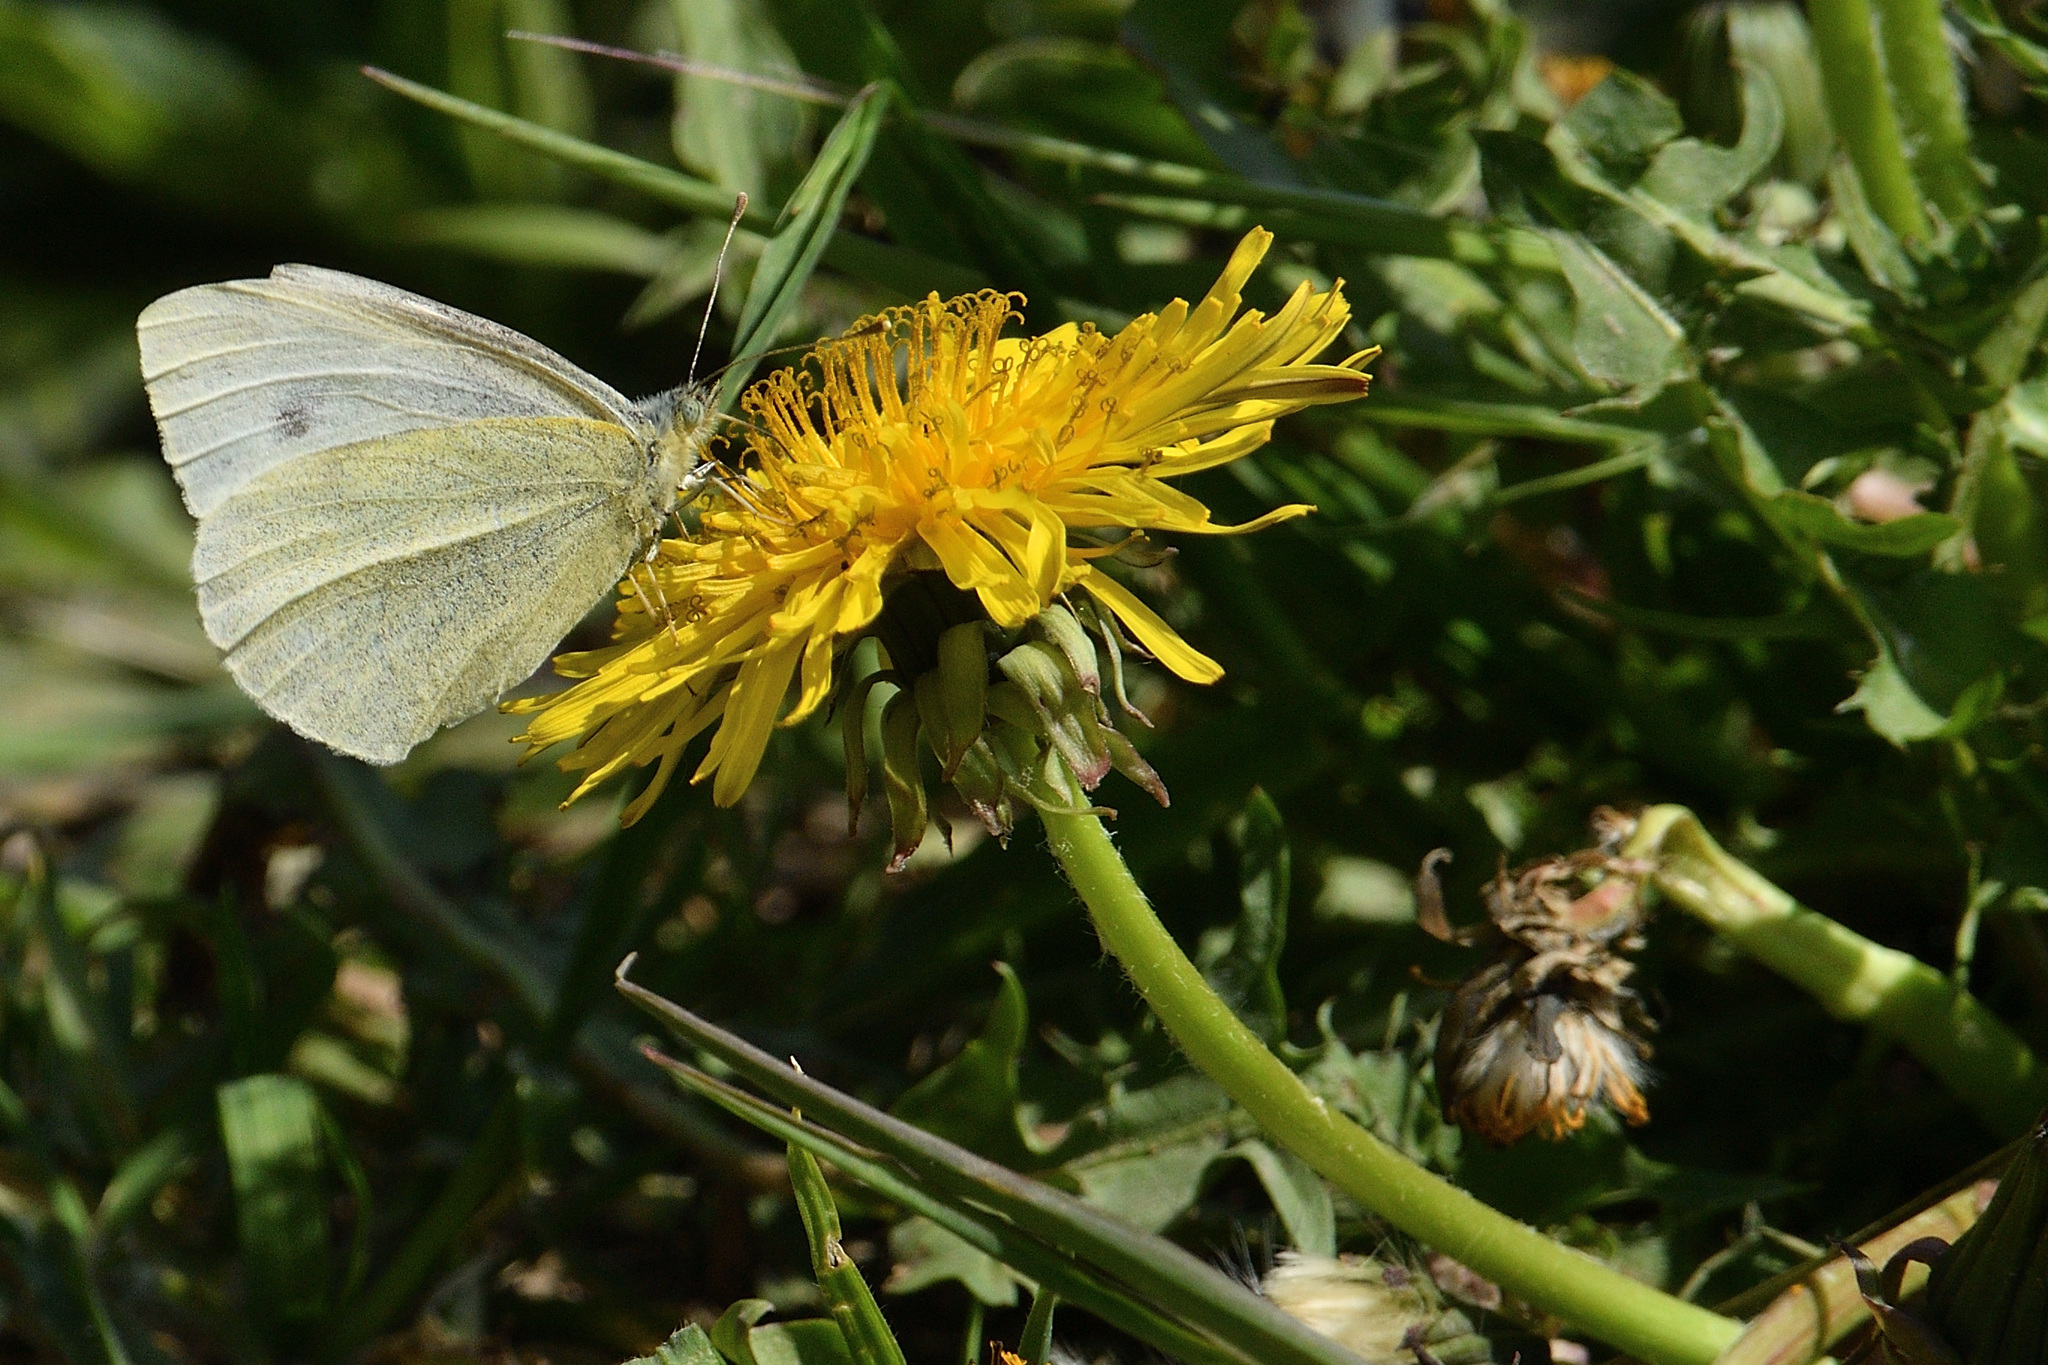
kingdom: Animalia
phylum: Arthropoda
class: Insecta
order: Lepidoptera
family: Pieridae
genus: Pieris
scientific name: Pieris rapae
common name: Small white
